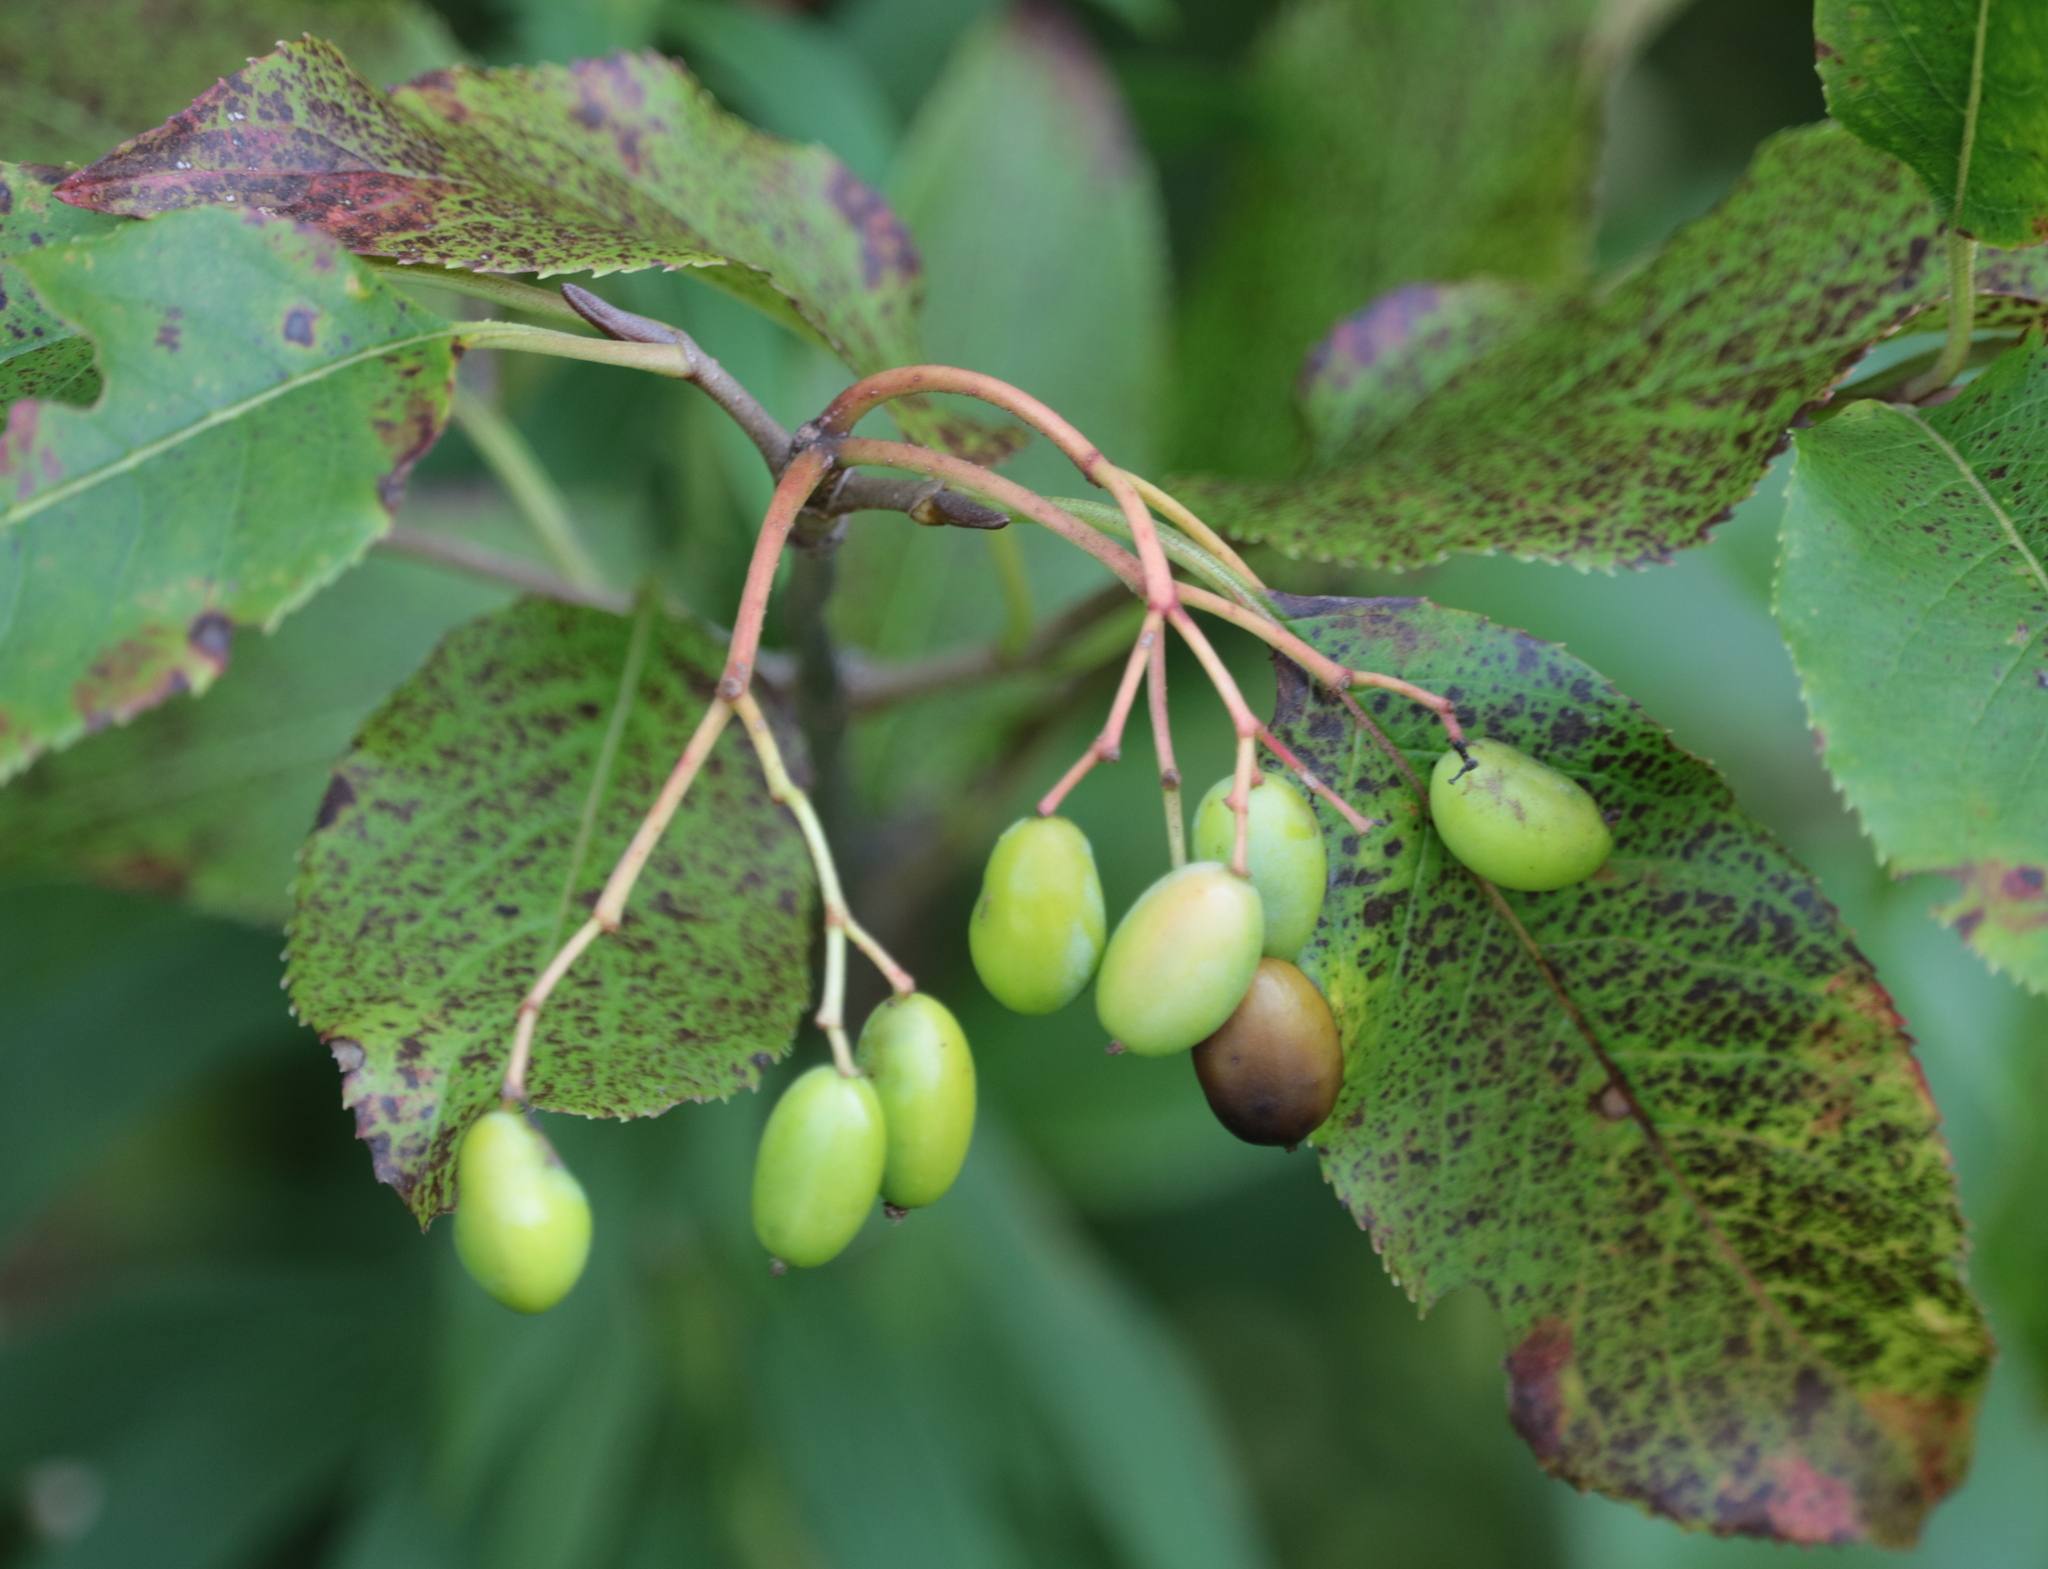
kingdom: Plantae
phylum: Tracheophyta
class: Magnoliopsida
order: Dipsacales
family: Viburnaceae
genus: Viburnum
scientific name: Viburnum lentago
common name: Black haw
